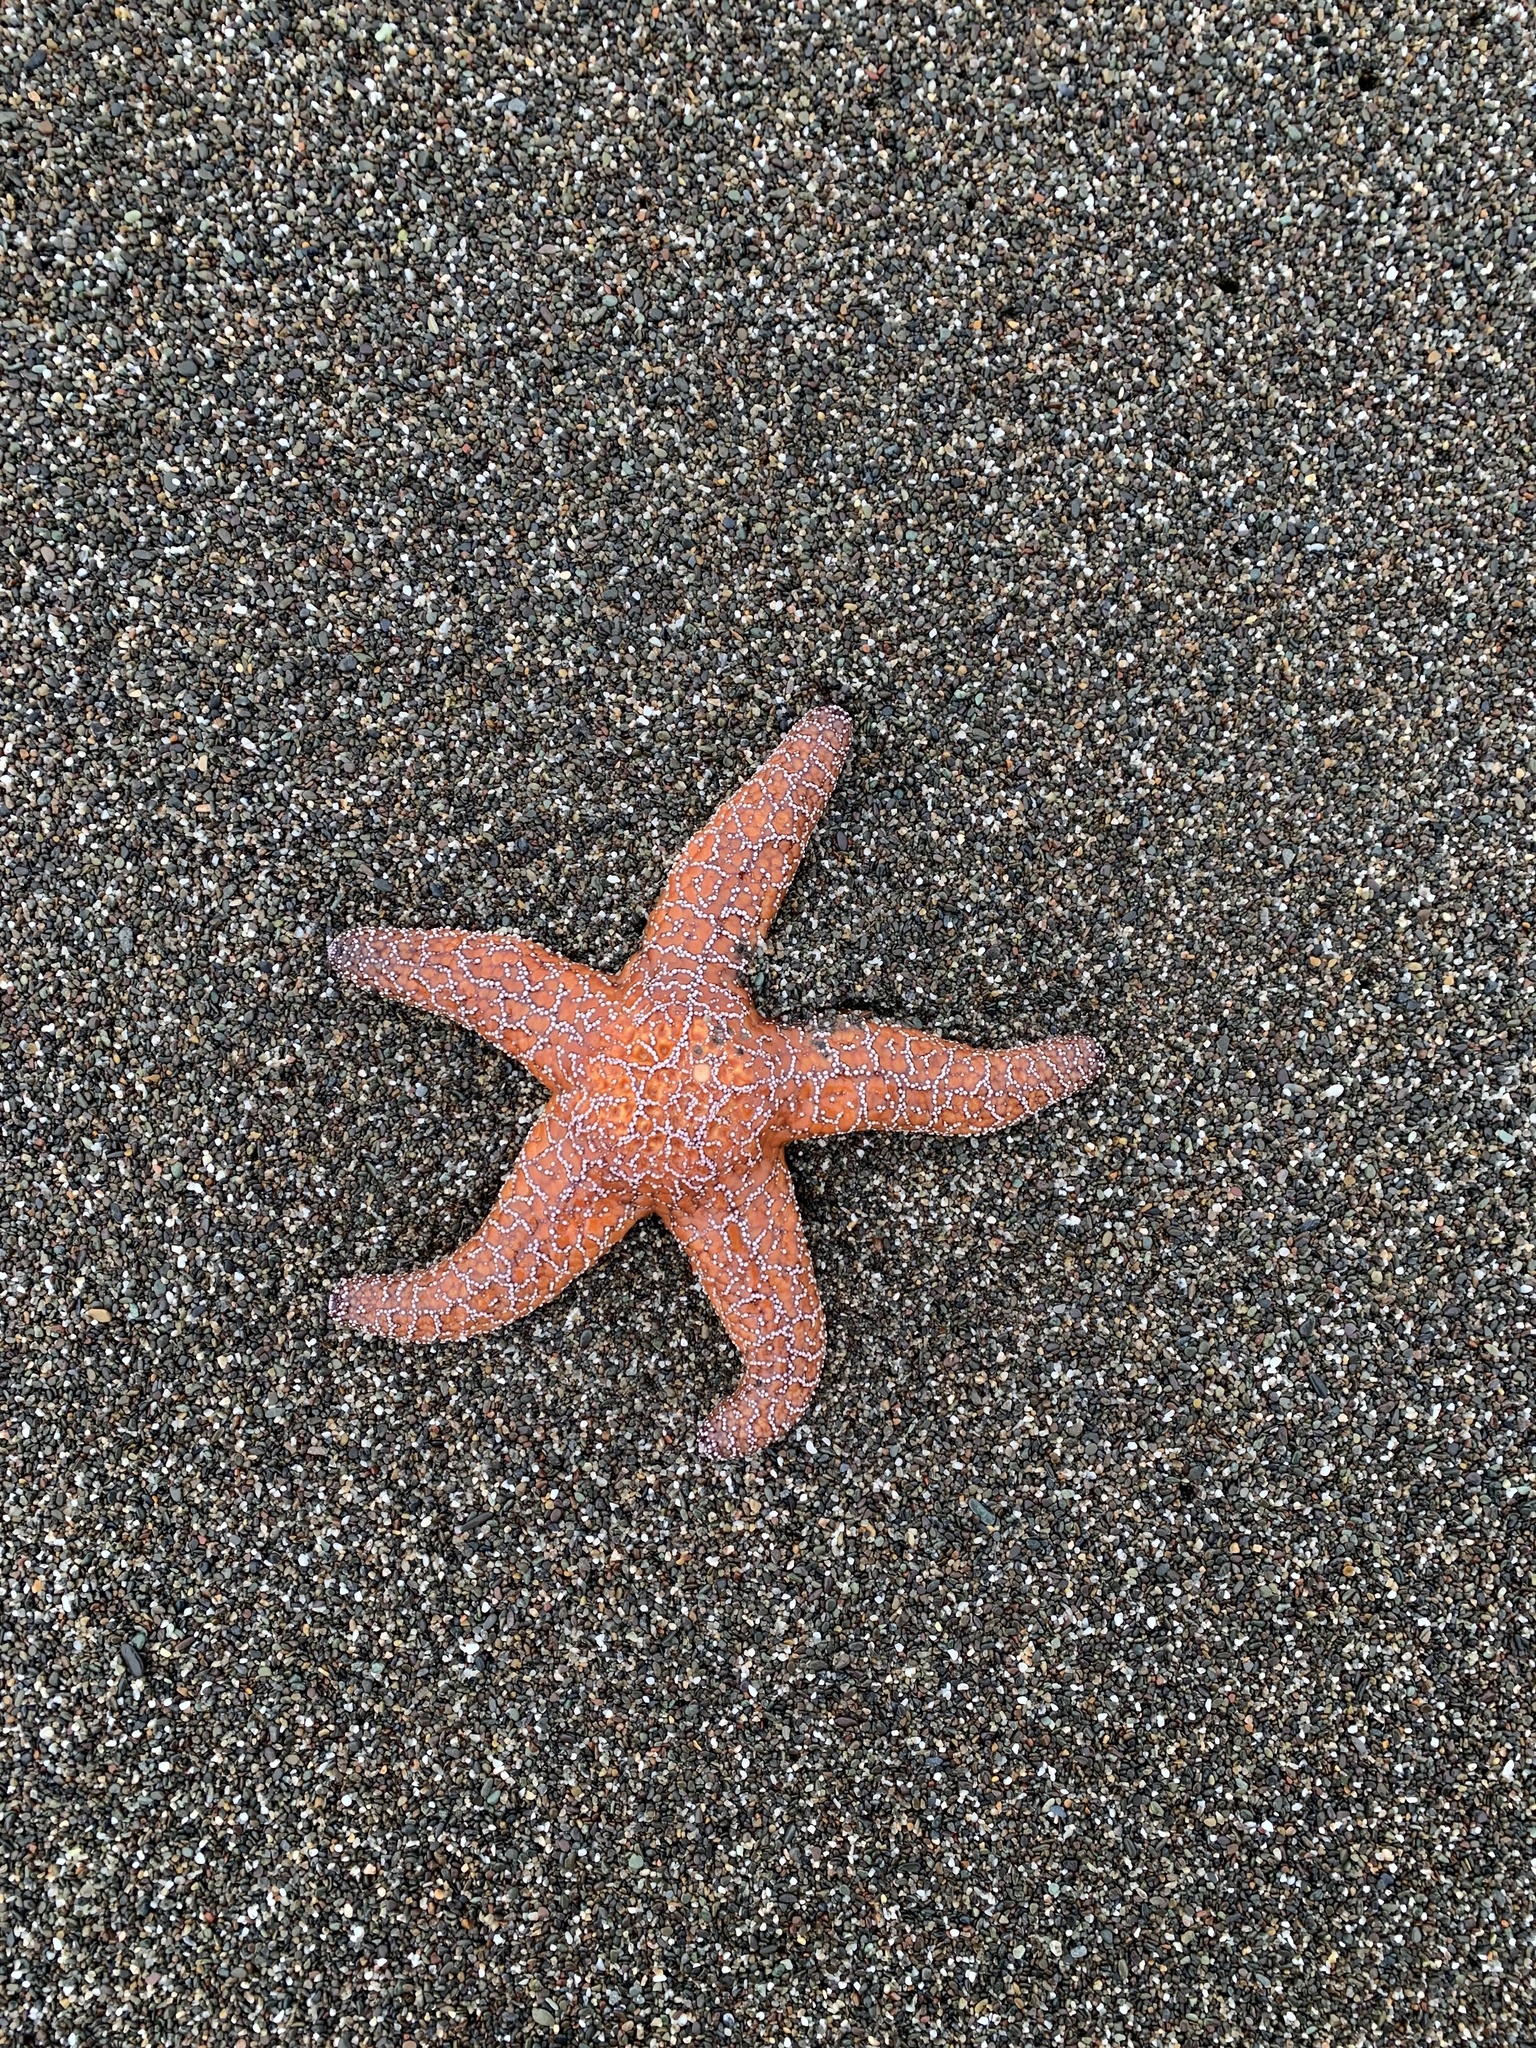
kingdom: Animalia
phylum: Echinodermata
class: Asteroidea
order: Forcipulatida
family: Asteriidae
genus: Pisaster
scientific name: Pisaster ochraceus
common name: Ochre stars
